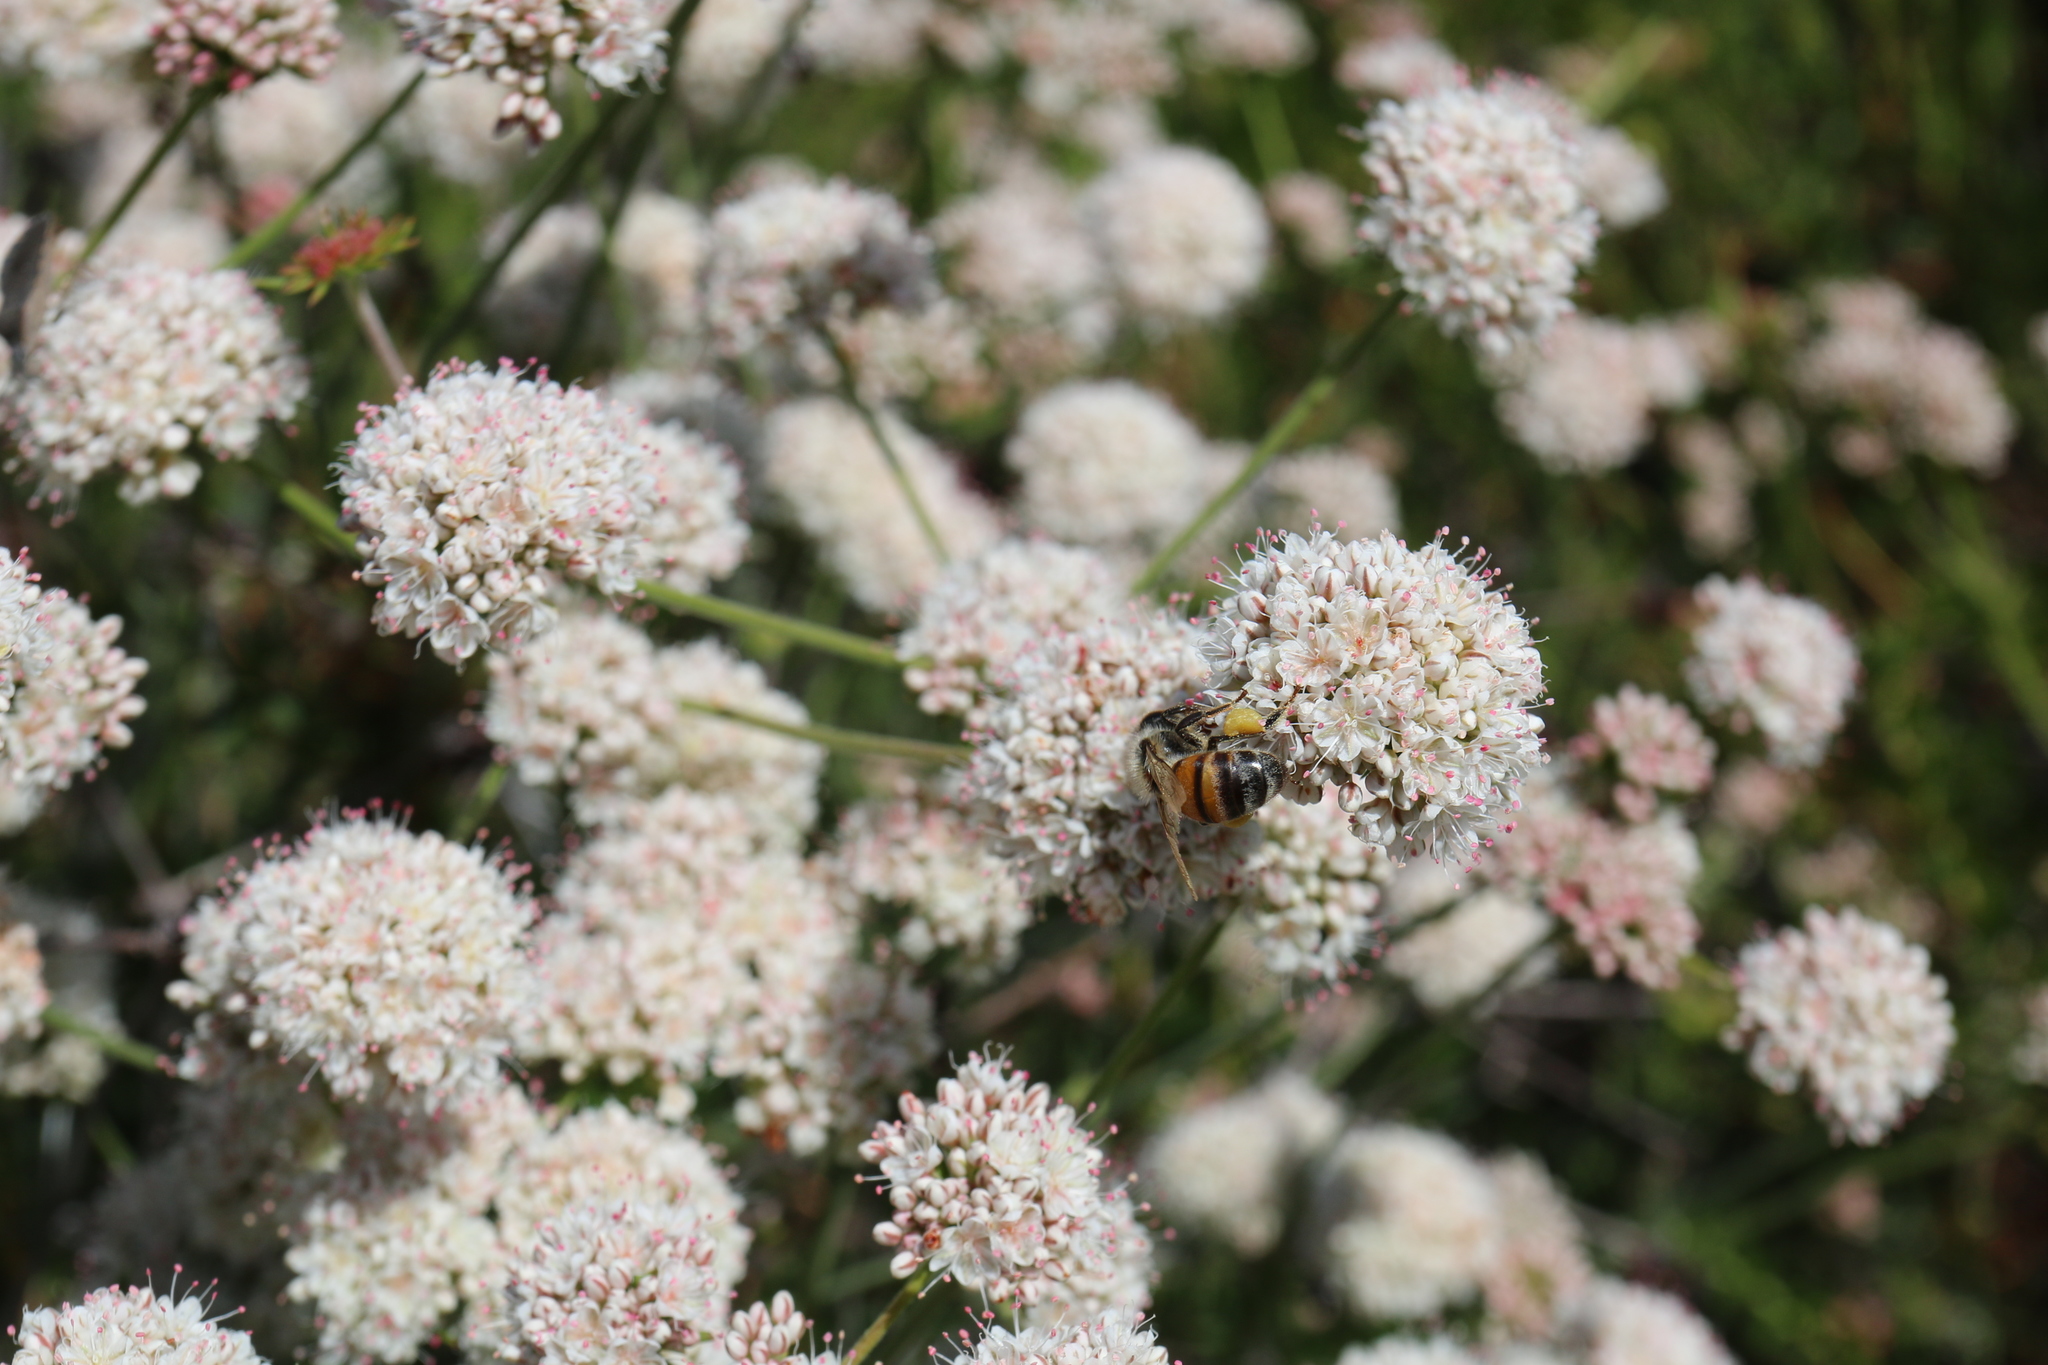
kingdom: Animalia
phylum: Arthropoda
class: Insecta
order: Hymenoptera
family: Apidae
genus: Apis
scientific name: Apis mellifera
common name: Honey bee
